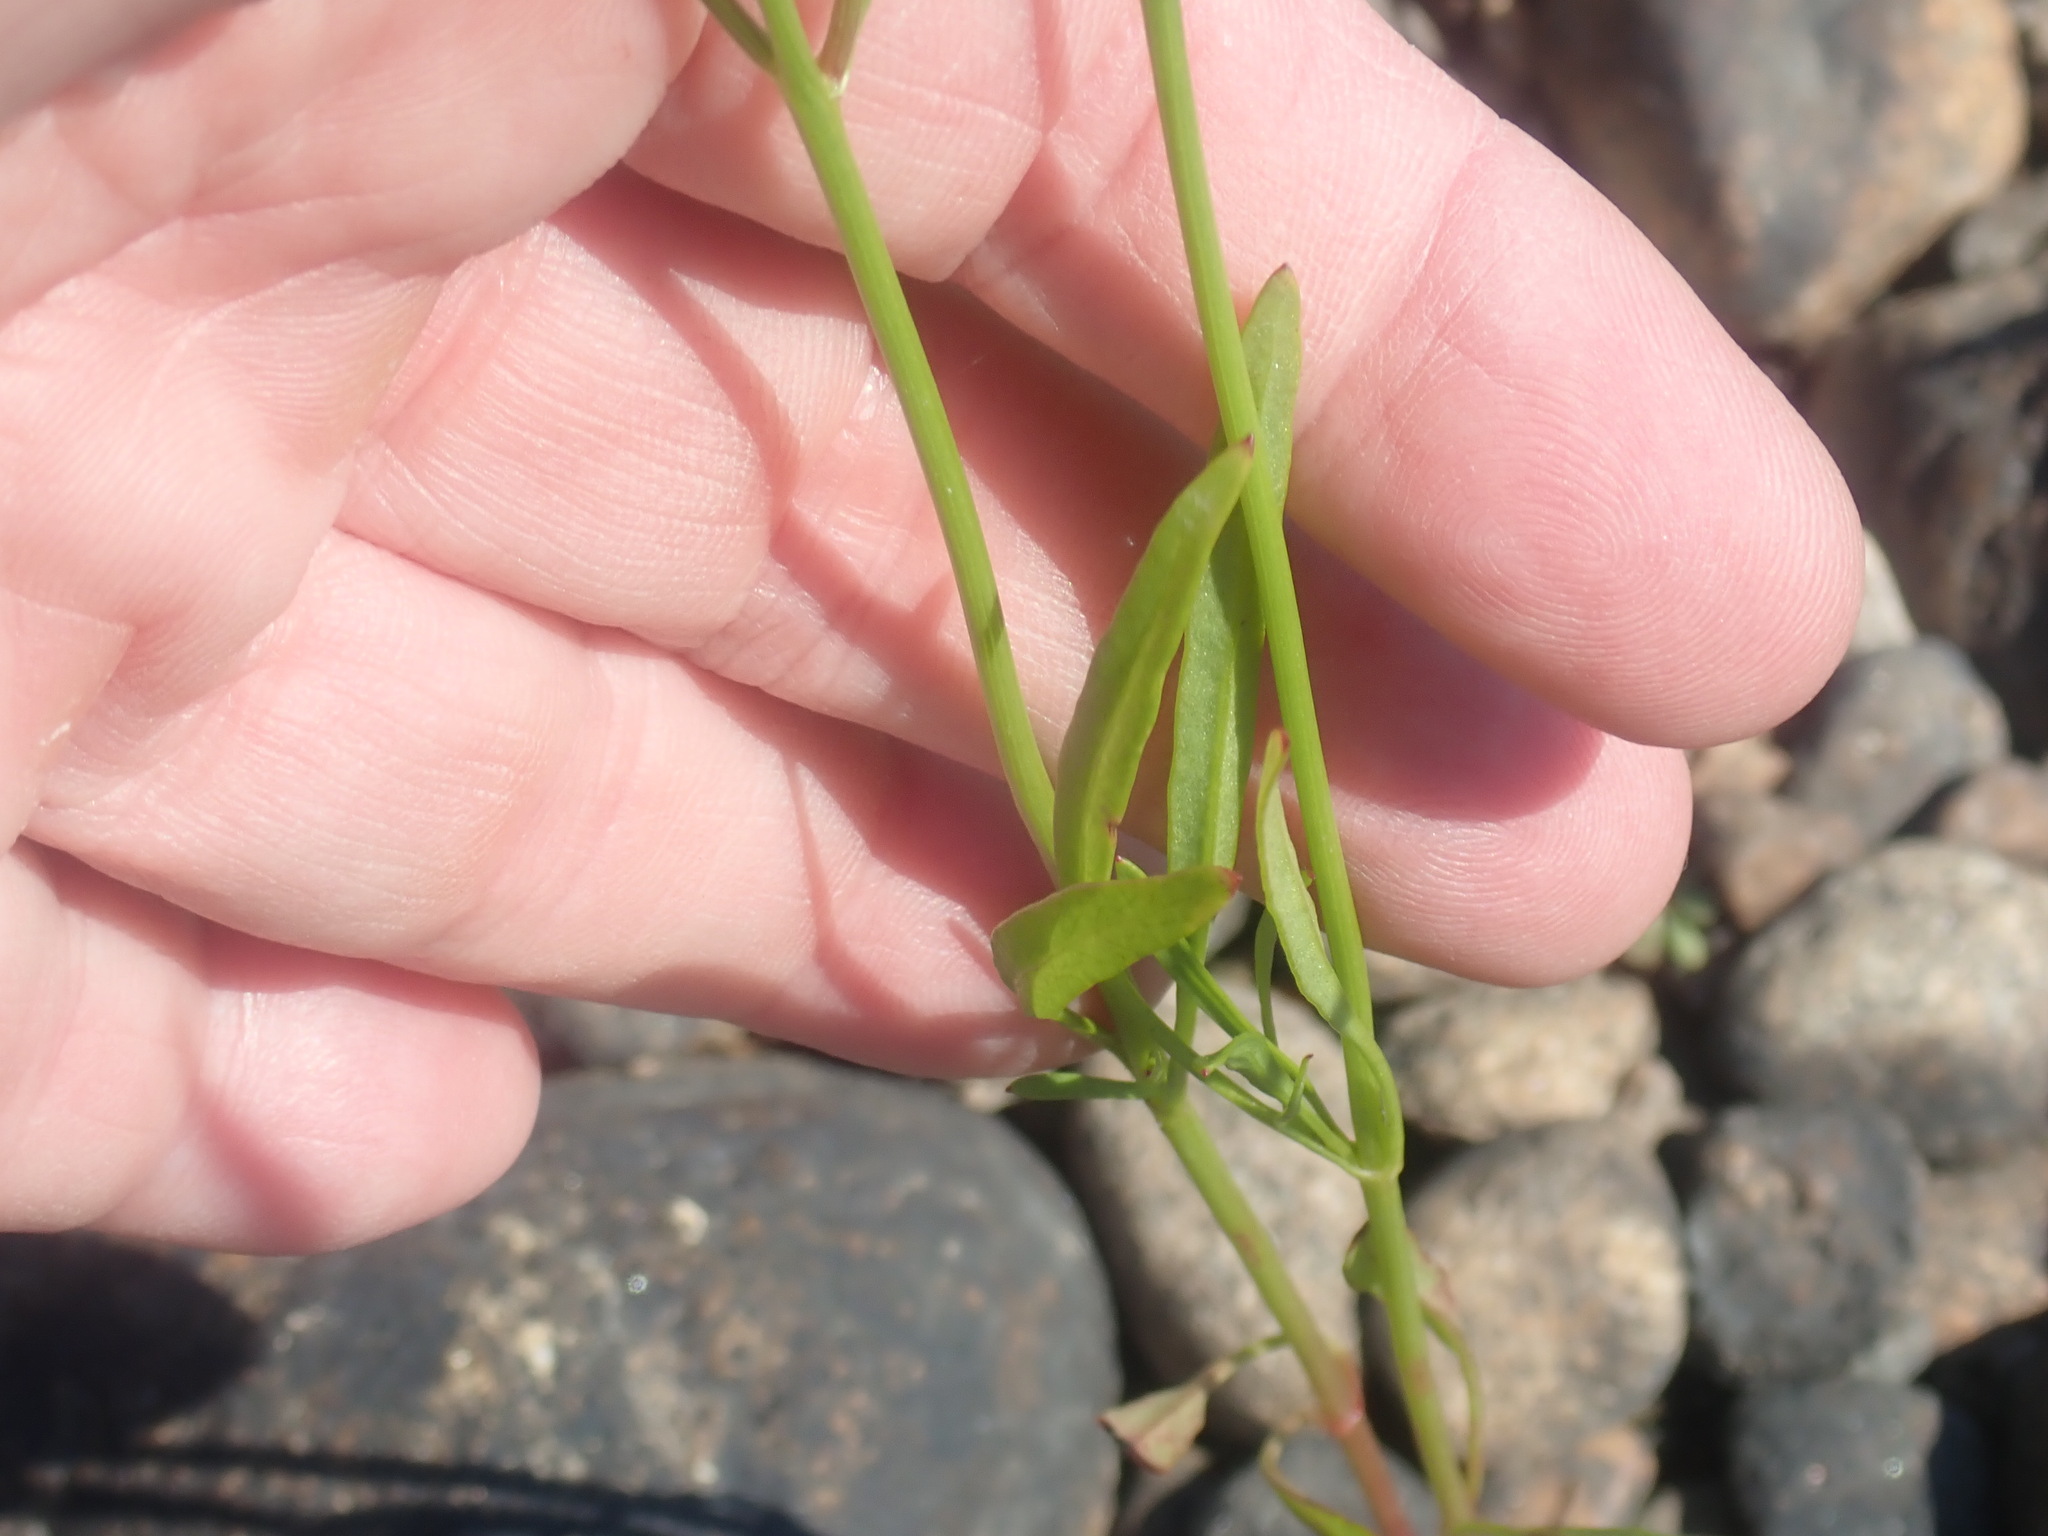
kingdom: Plantae
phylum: Tracheophyta
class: Magnoliopsida
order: Asterales
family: Asteraceae
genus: Coreopsis
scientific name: Coreopsis tinctoria
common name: Garden tickseed
